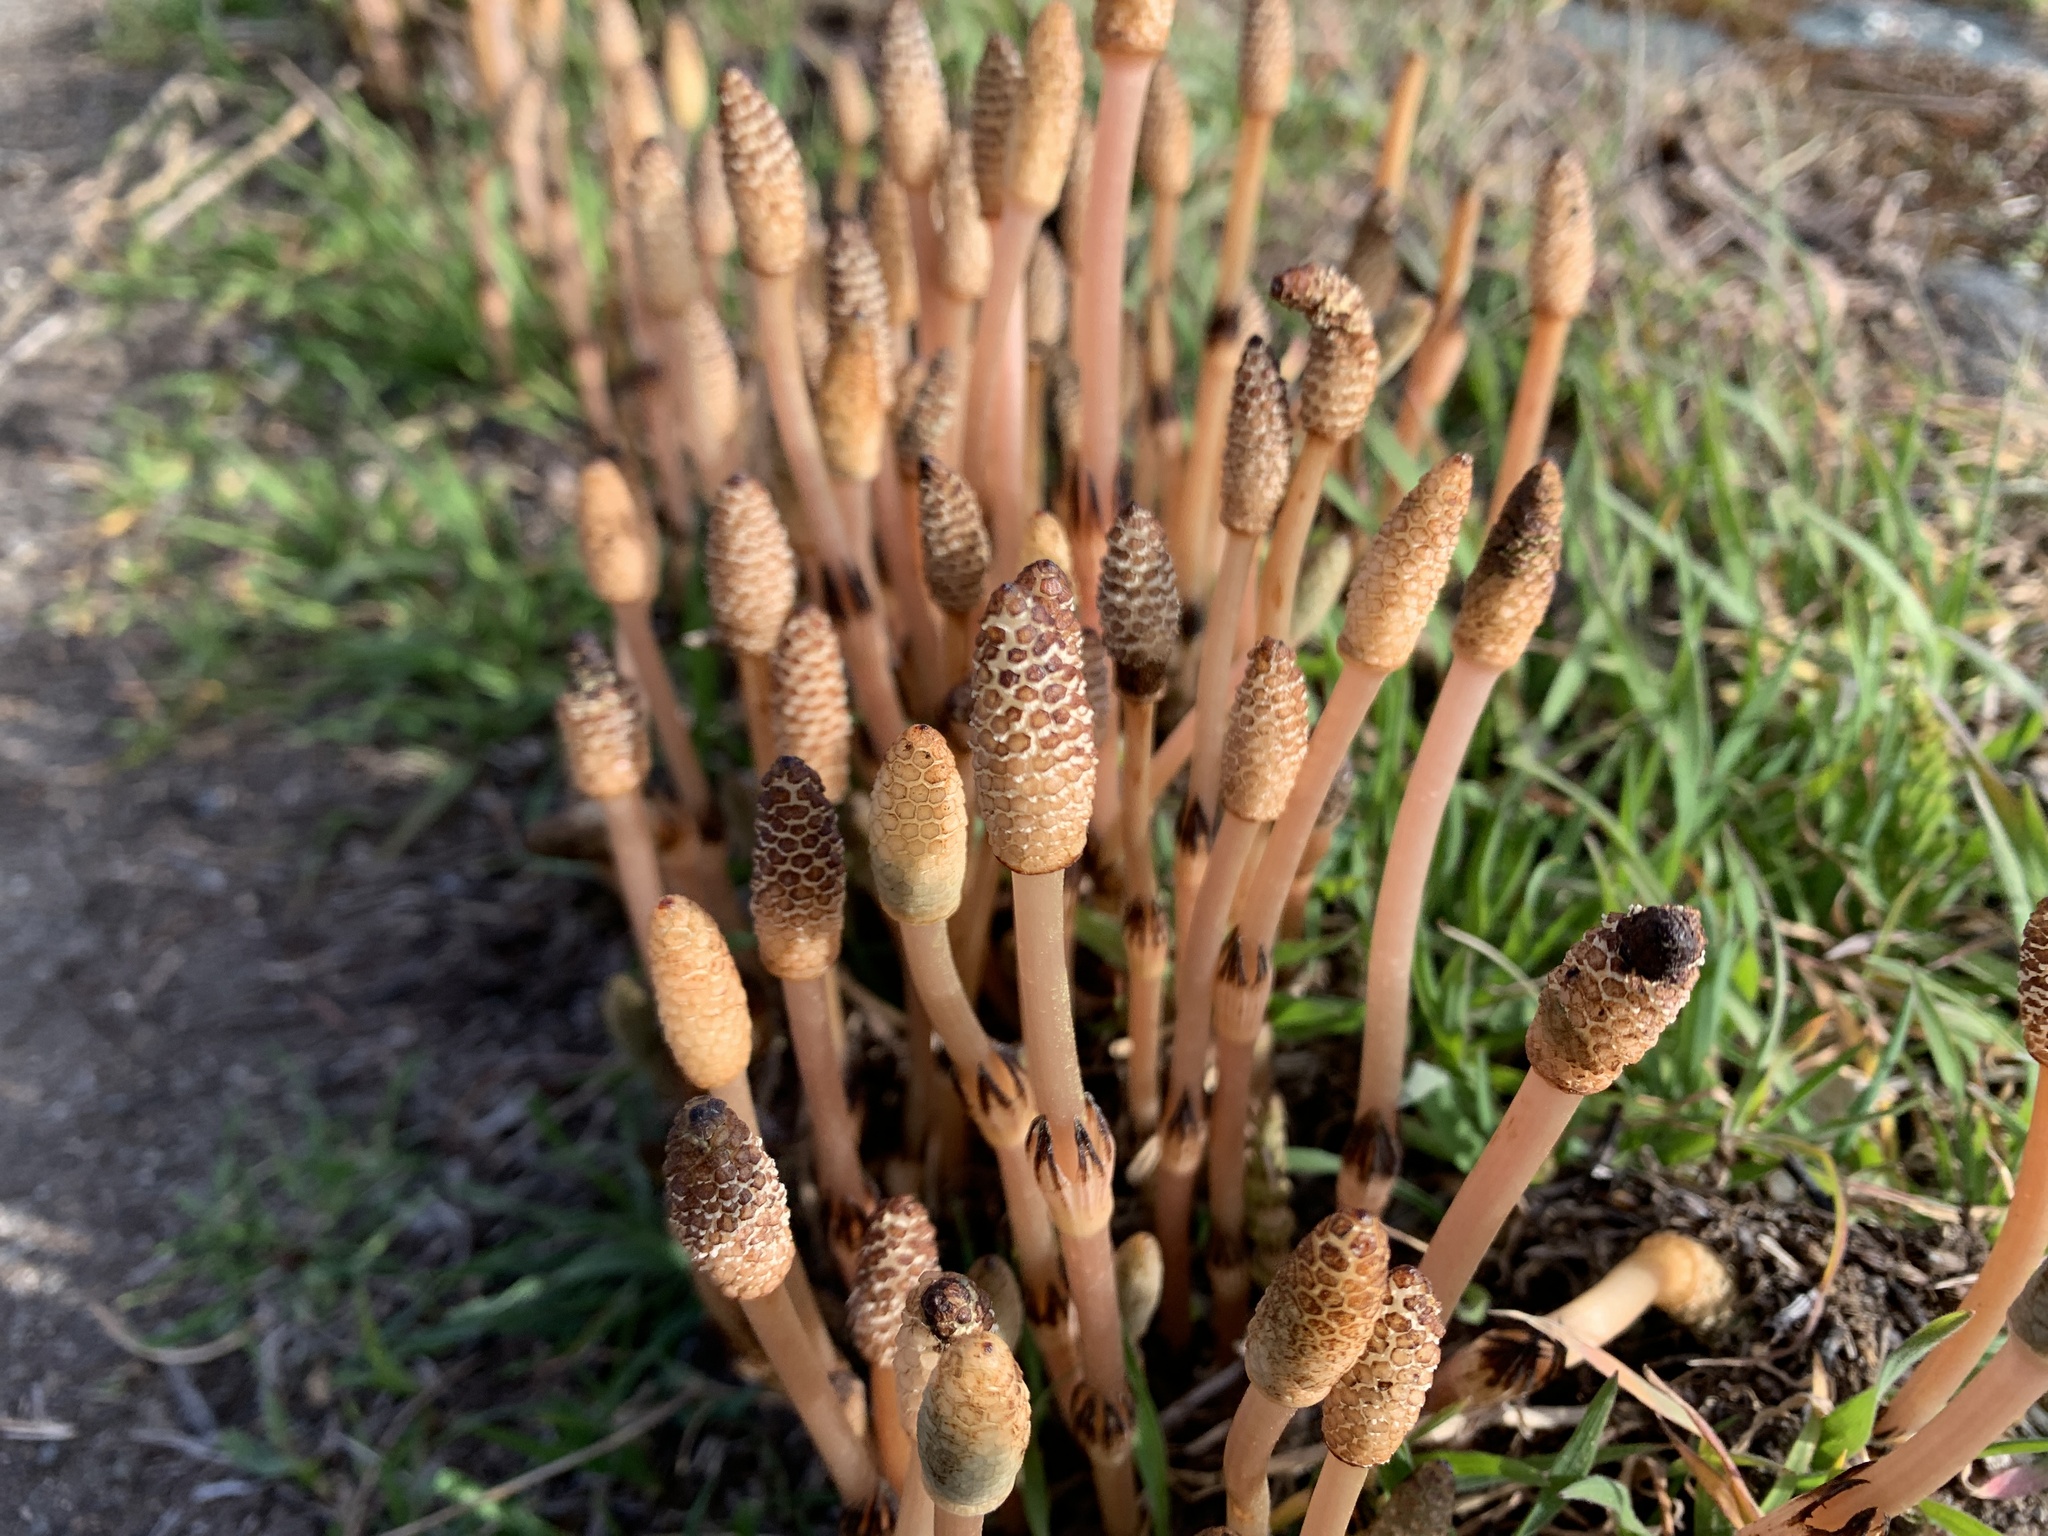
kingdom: Plantae
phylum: Tracheophyta
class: Polypodiopsida
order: Equisetales
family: Equisetaceae
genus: Equisetum
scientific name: Equisetum arvense
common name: Field horsetail
